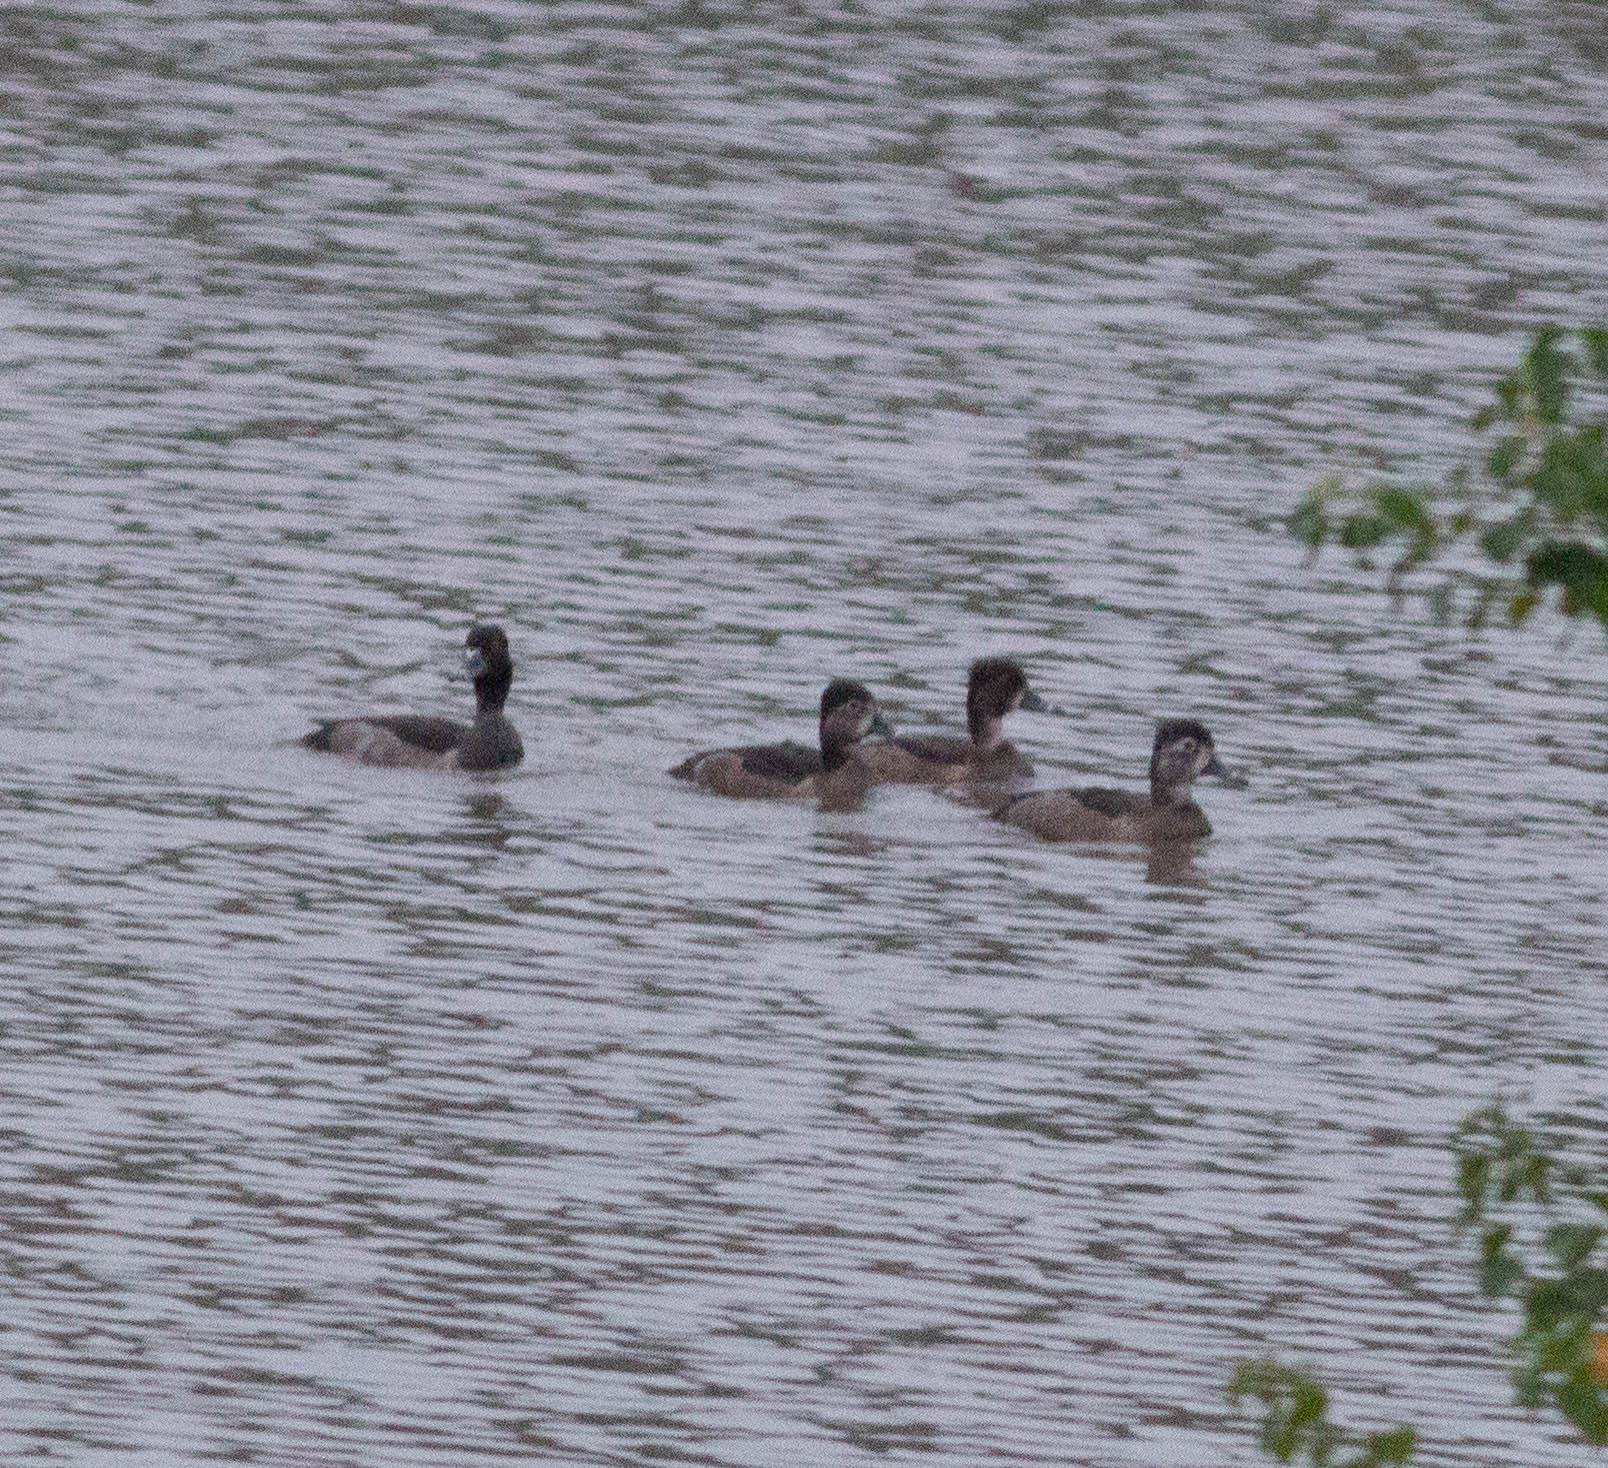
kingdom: Animalia
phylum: Chordata
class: Aves
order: Anseriformes
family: Anatidae
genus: Aythya
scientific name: Aythya collaris
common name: Ring-necked duck
